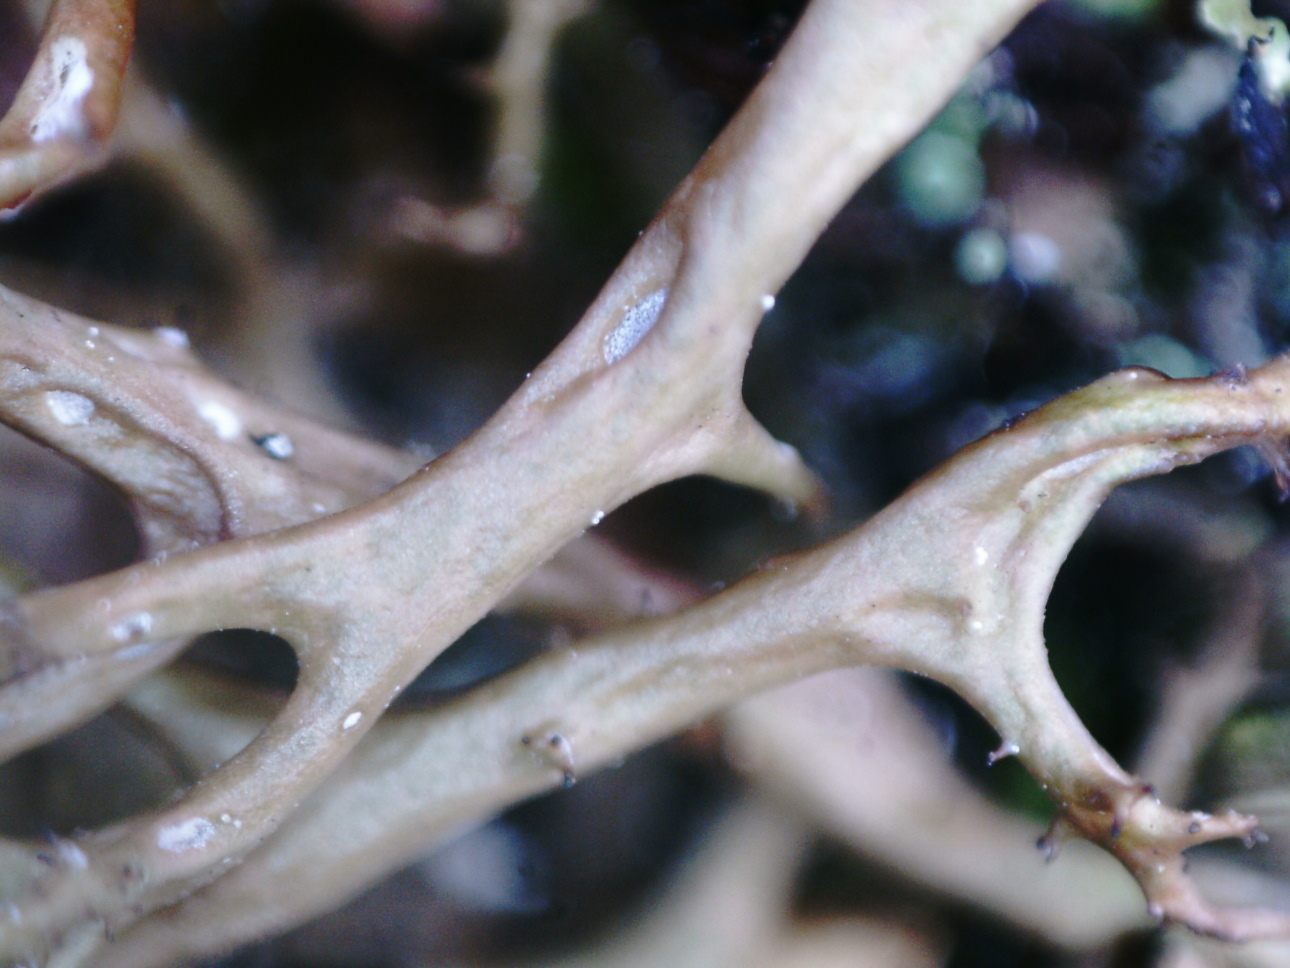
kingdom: Fungi
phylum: Ascomycota
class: Lecanoromycetes
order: Lecanorales
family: Parmeliaceae
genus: Cetraria
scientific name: Cetraria aculeata
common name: Spiny heath lichen
